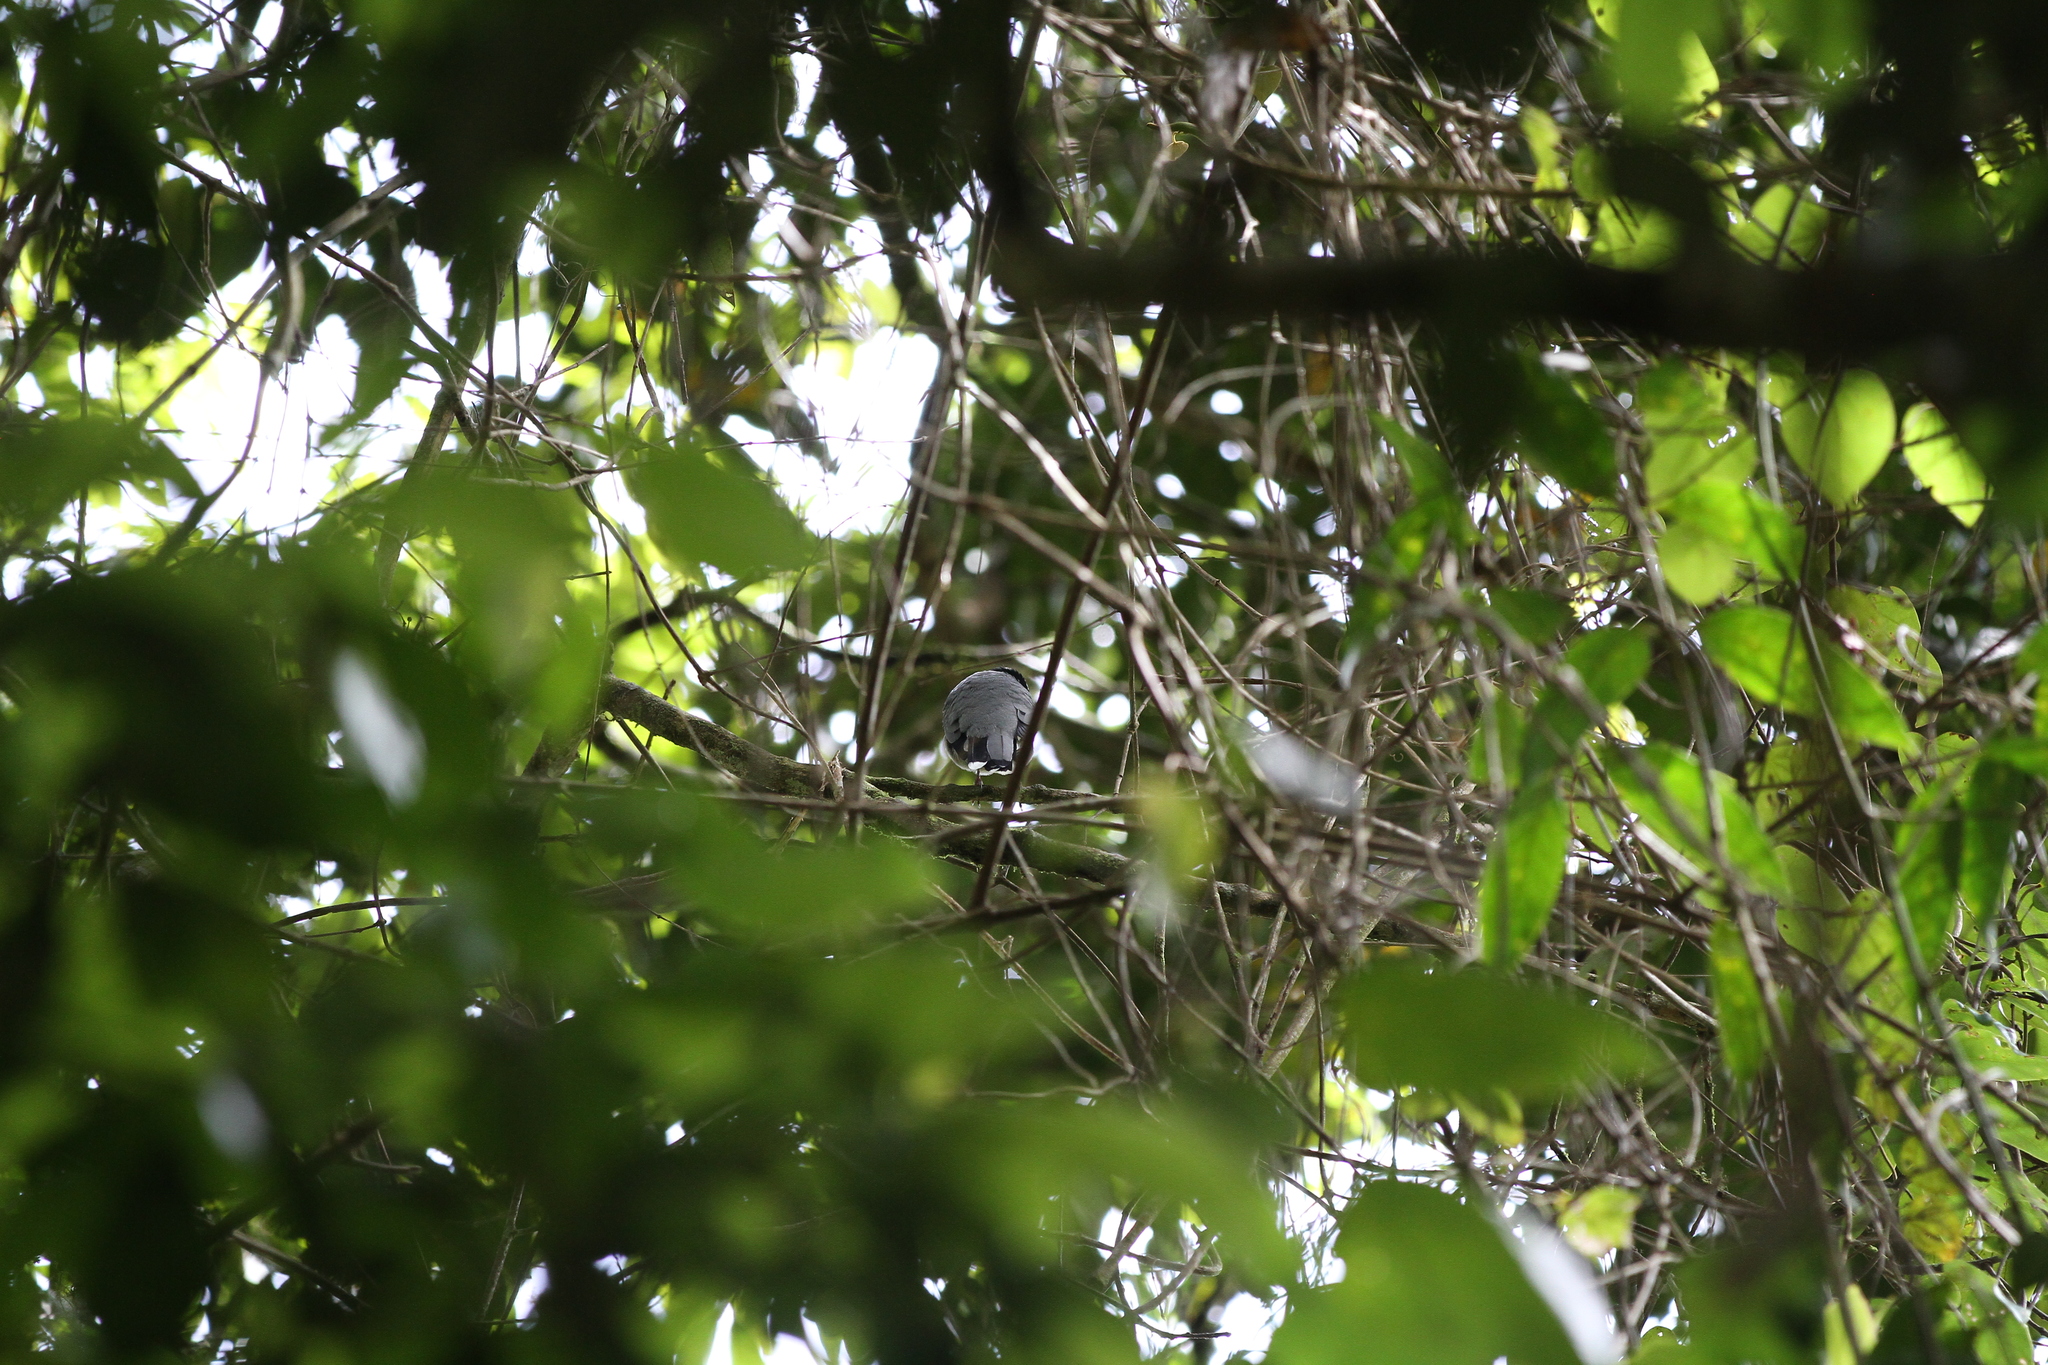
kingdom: Animalia
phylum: Chordata
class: Aves
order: Passeriformes
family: Turdidae
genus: Chlamydochaera
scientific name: Chlamydochaera jefferyi
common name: Fruithunter
